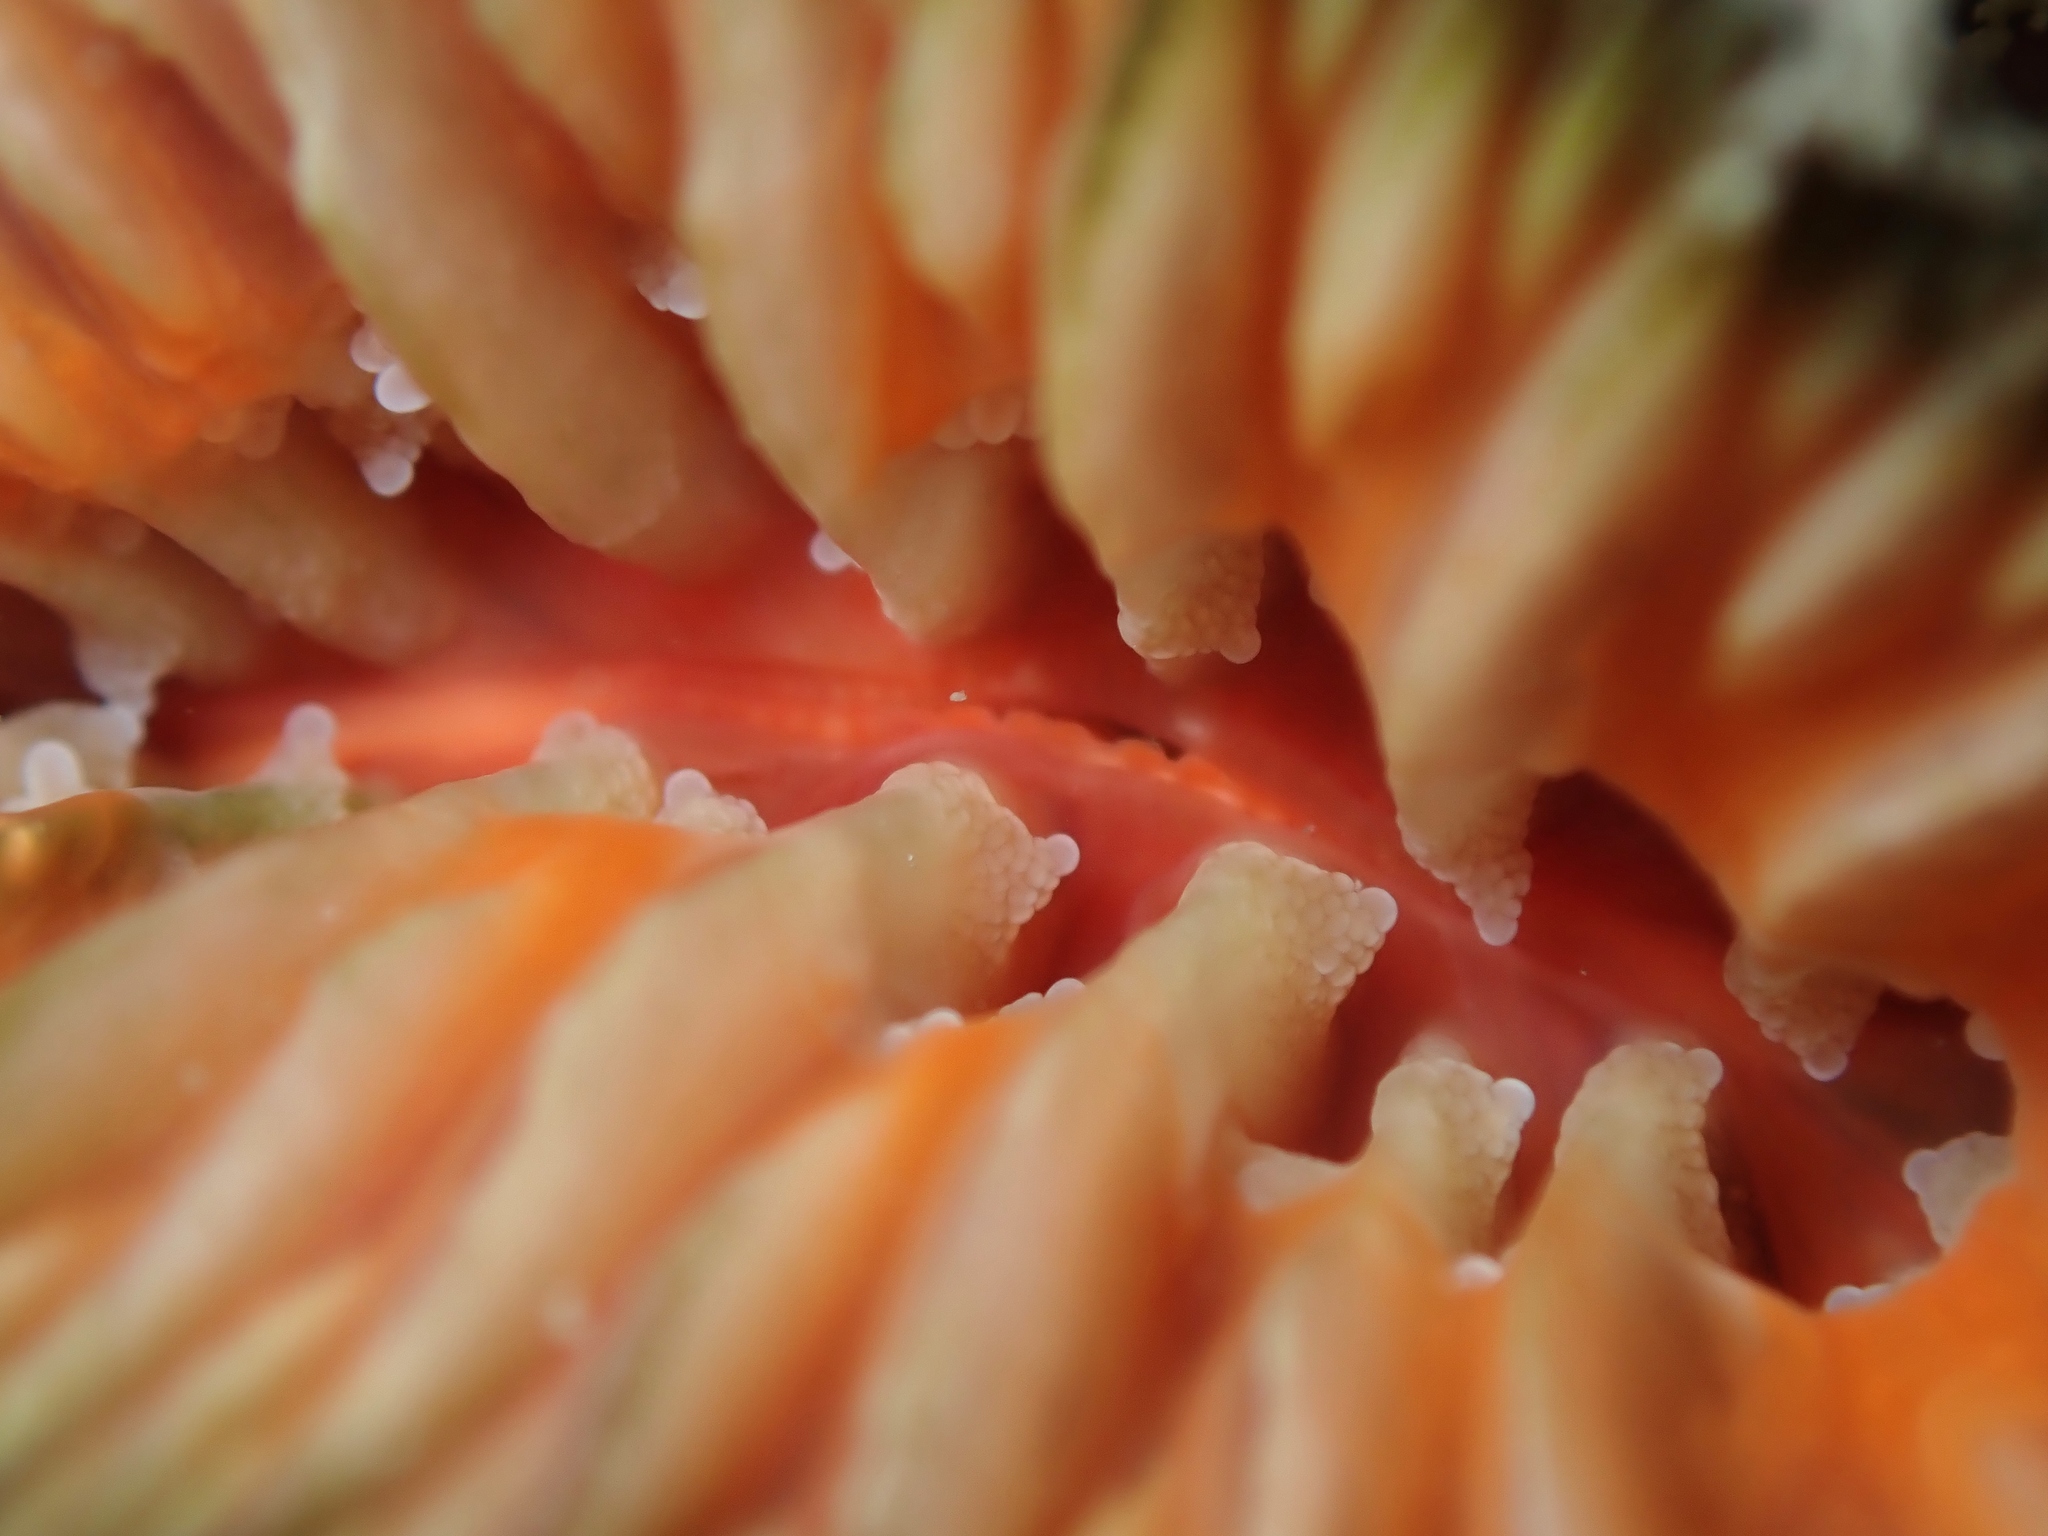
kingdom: Animalia
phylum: Cnidaria
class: Anthozoa
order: Scleractinia
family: Flabellidae
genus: Monomyces
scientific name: Monomyces rubrum
